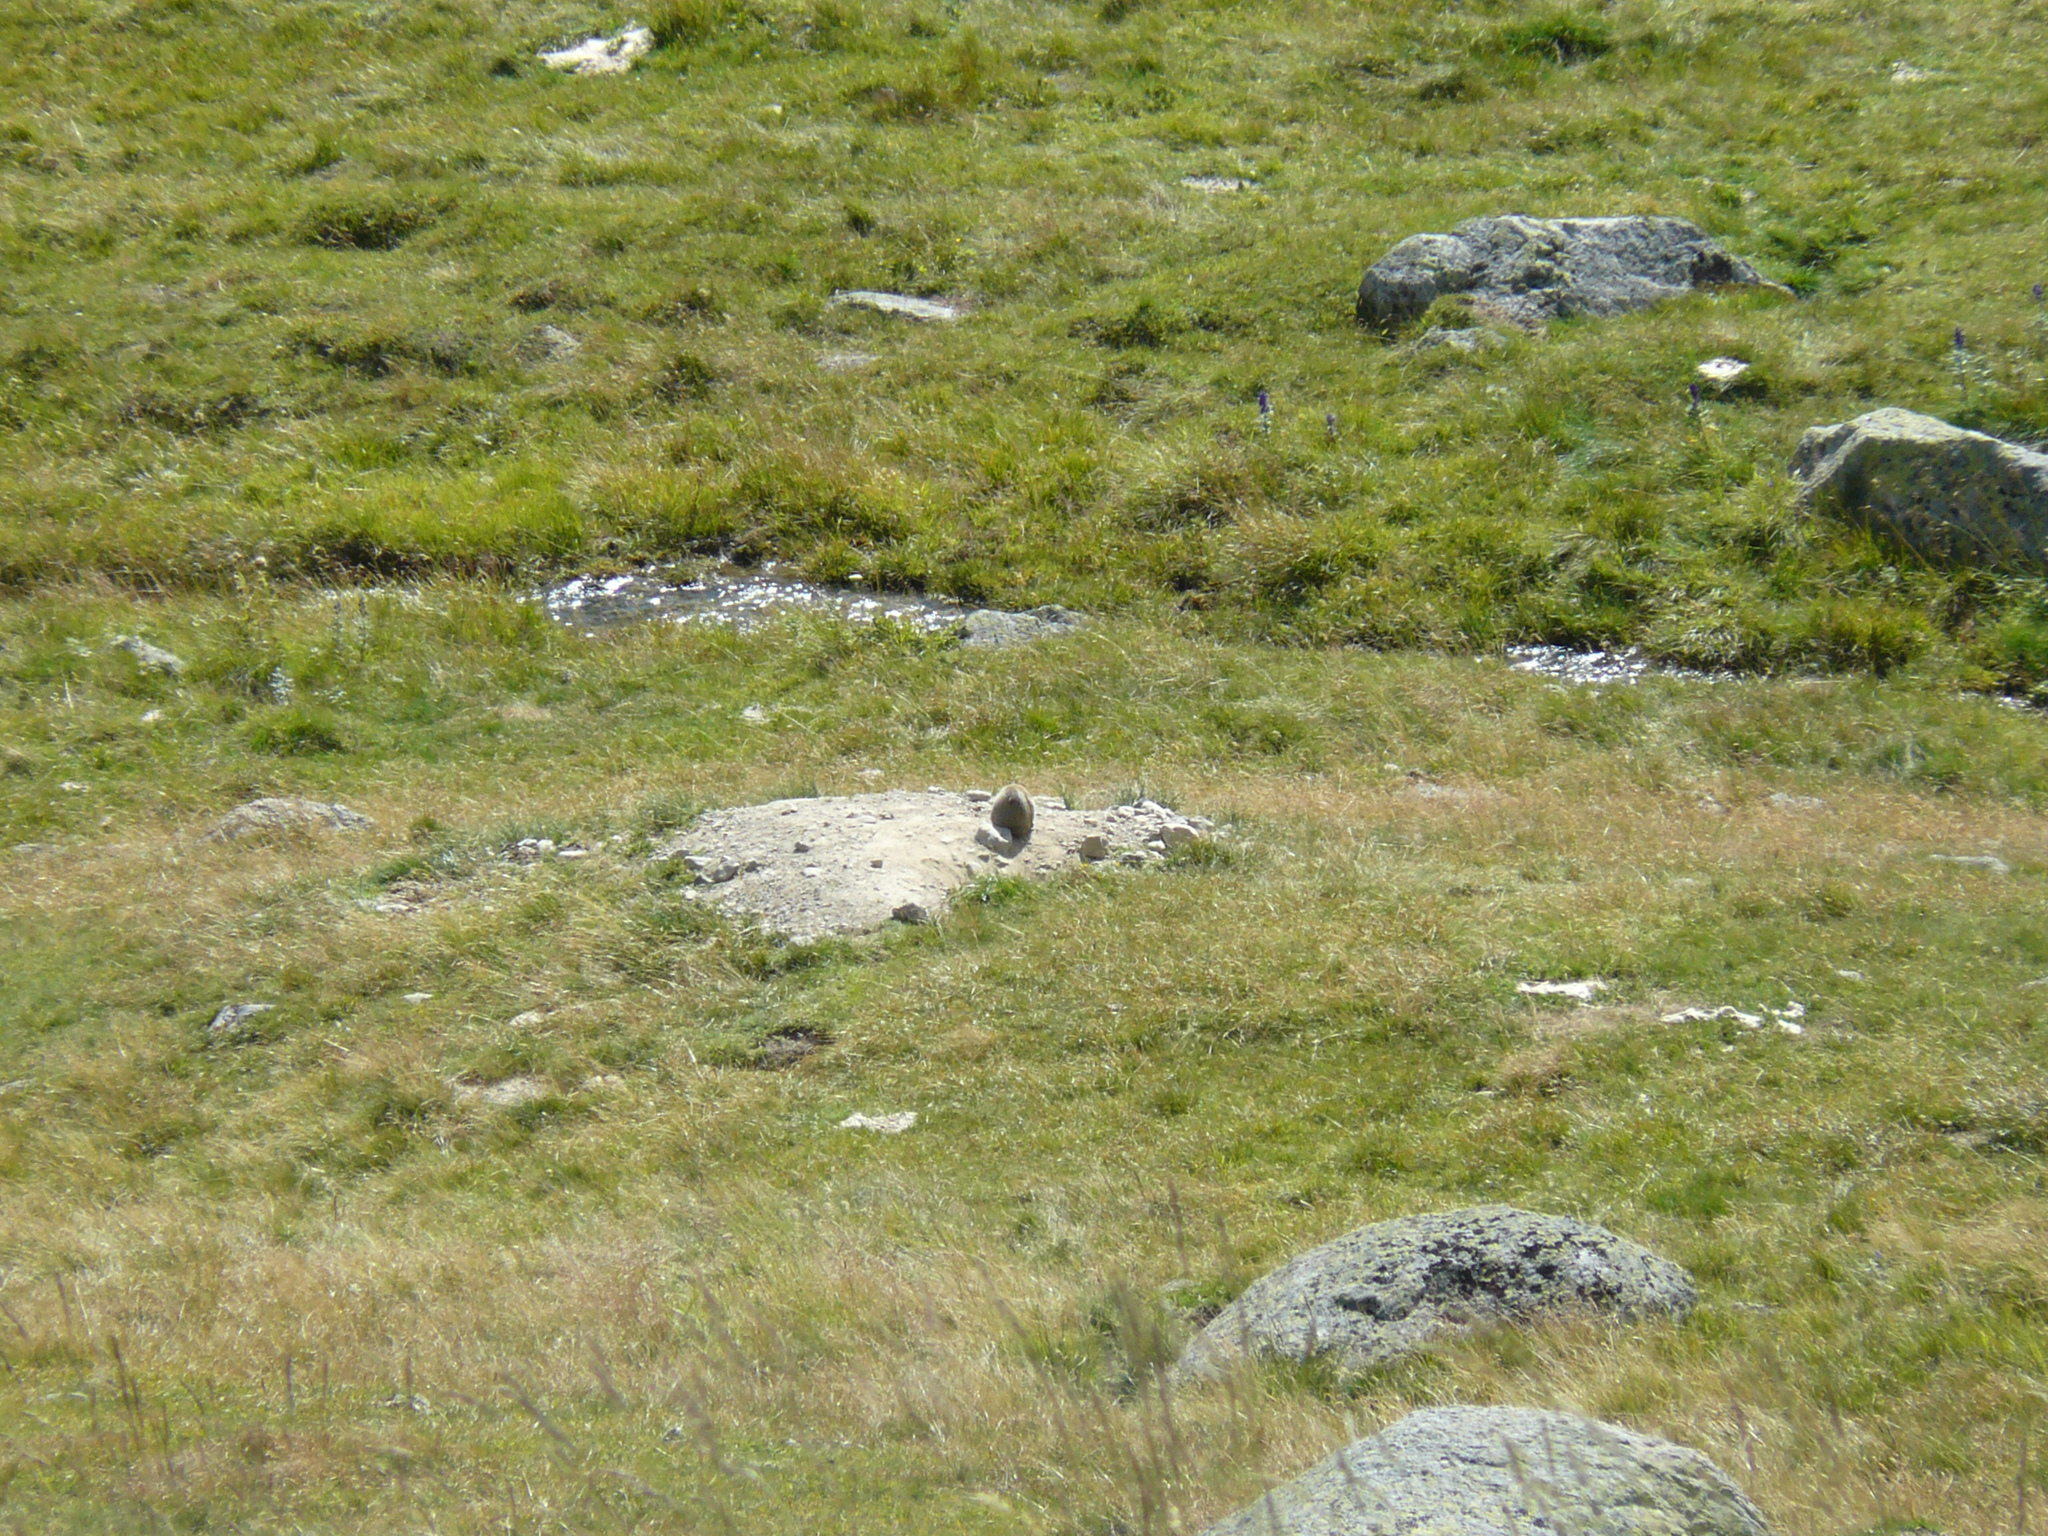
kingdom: Animalia
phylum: Chordata
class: Mammalia
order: Rodentia
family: Sciuridae
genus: Marmota
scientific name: Marmota marmota
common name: Alpine marmot
